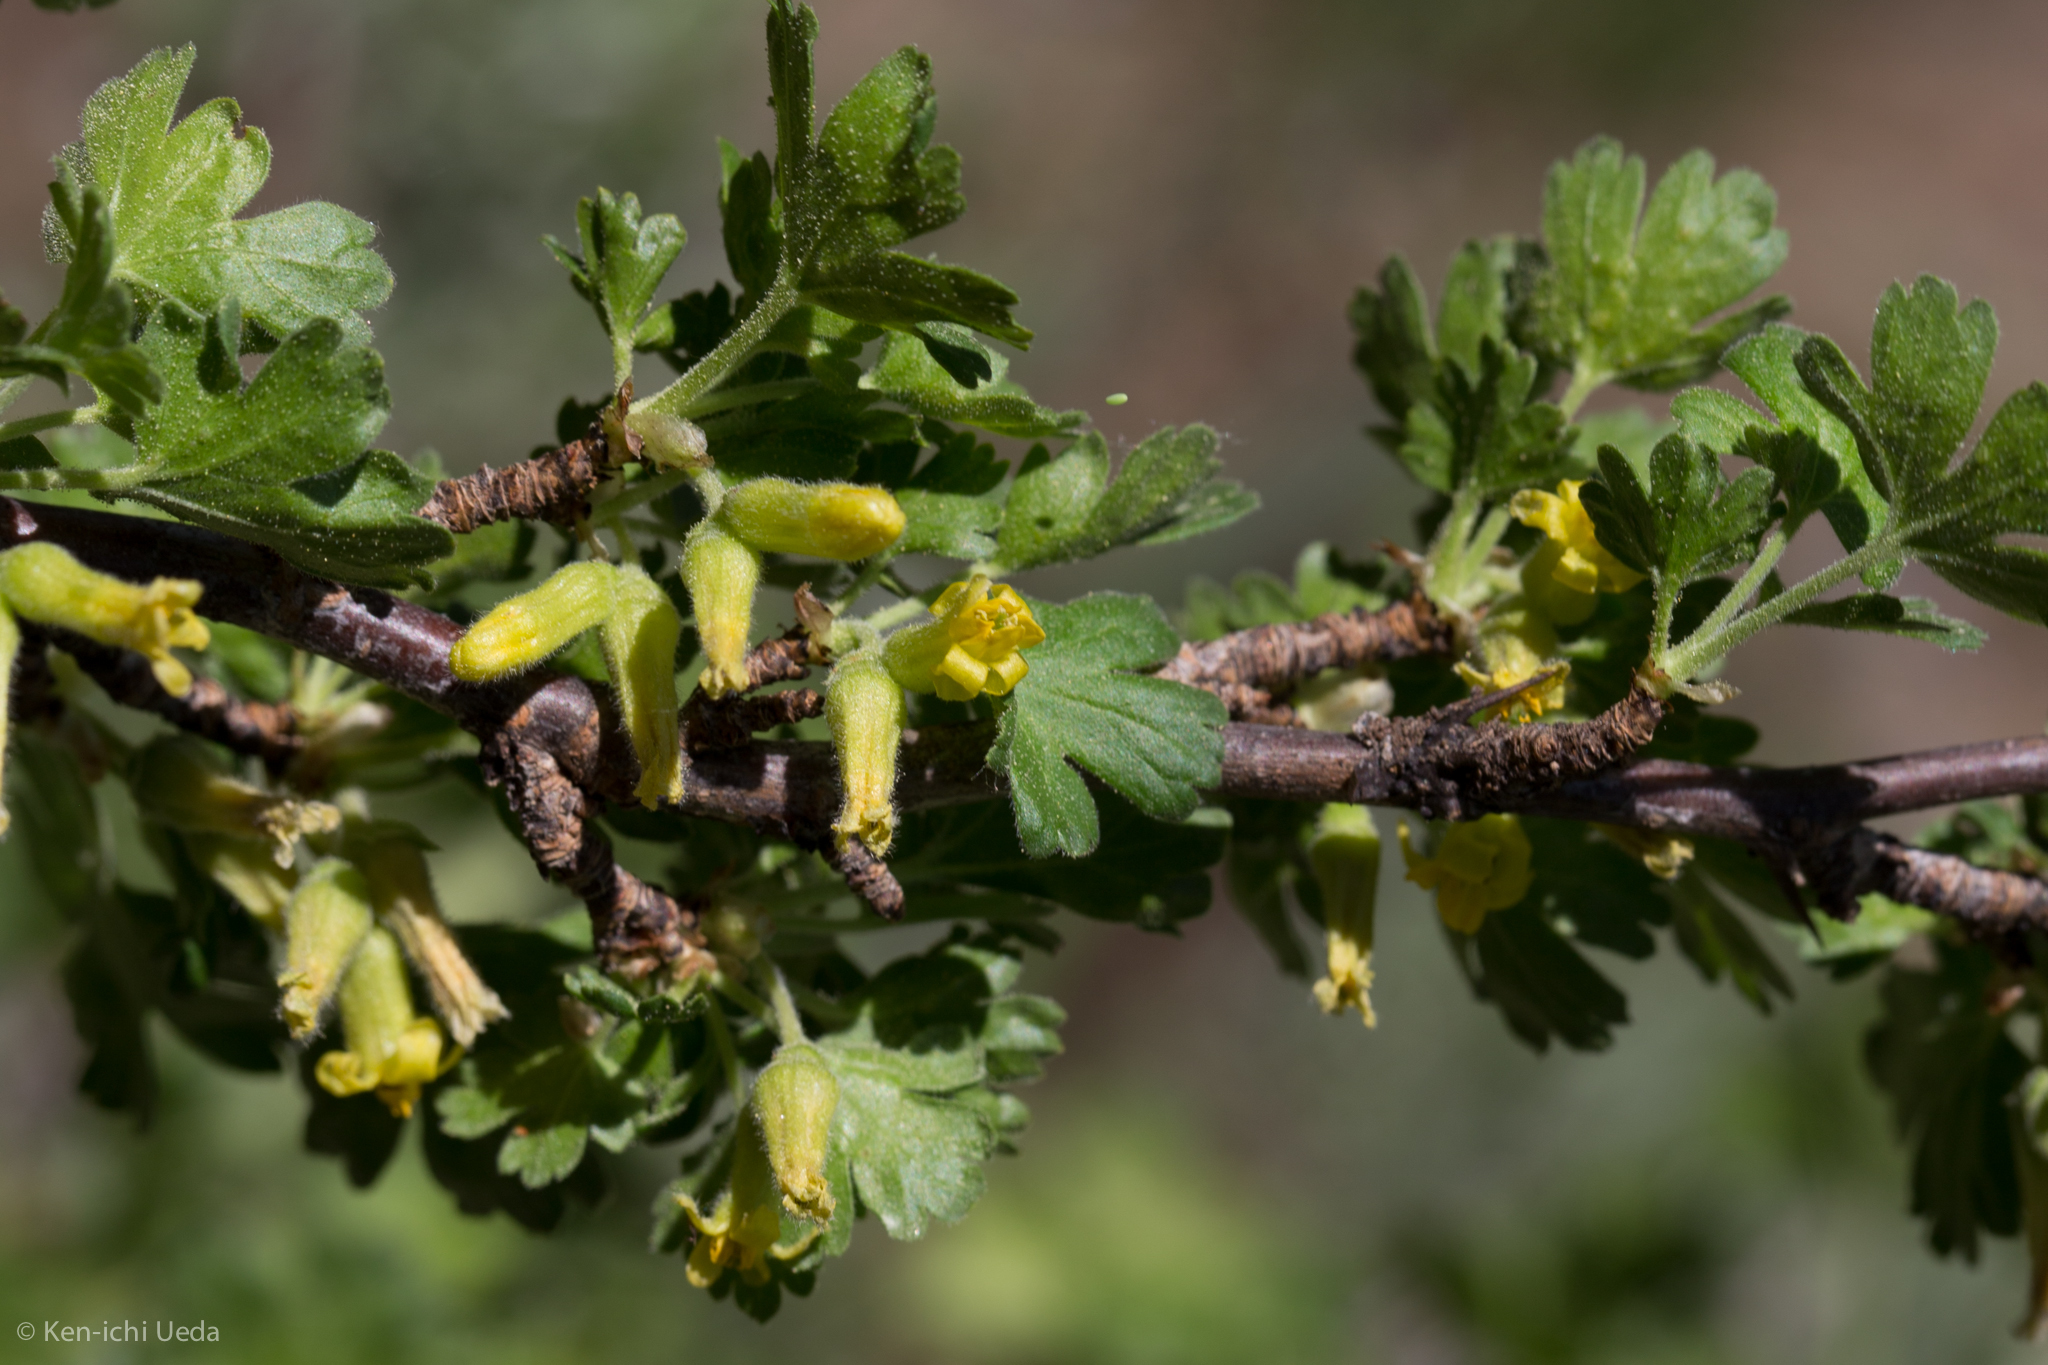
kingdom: Plantae
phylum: Tracheophyta
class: Magnoliopsida
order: Saxifragales
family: Grossulariaceae
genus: Ribes
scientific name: Ribes lasianthum
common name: Alpine gooseberry
